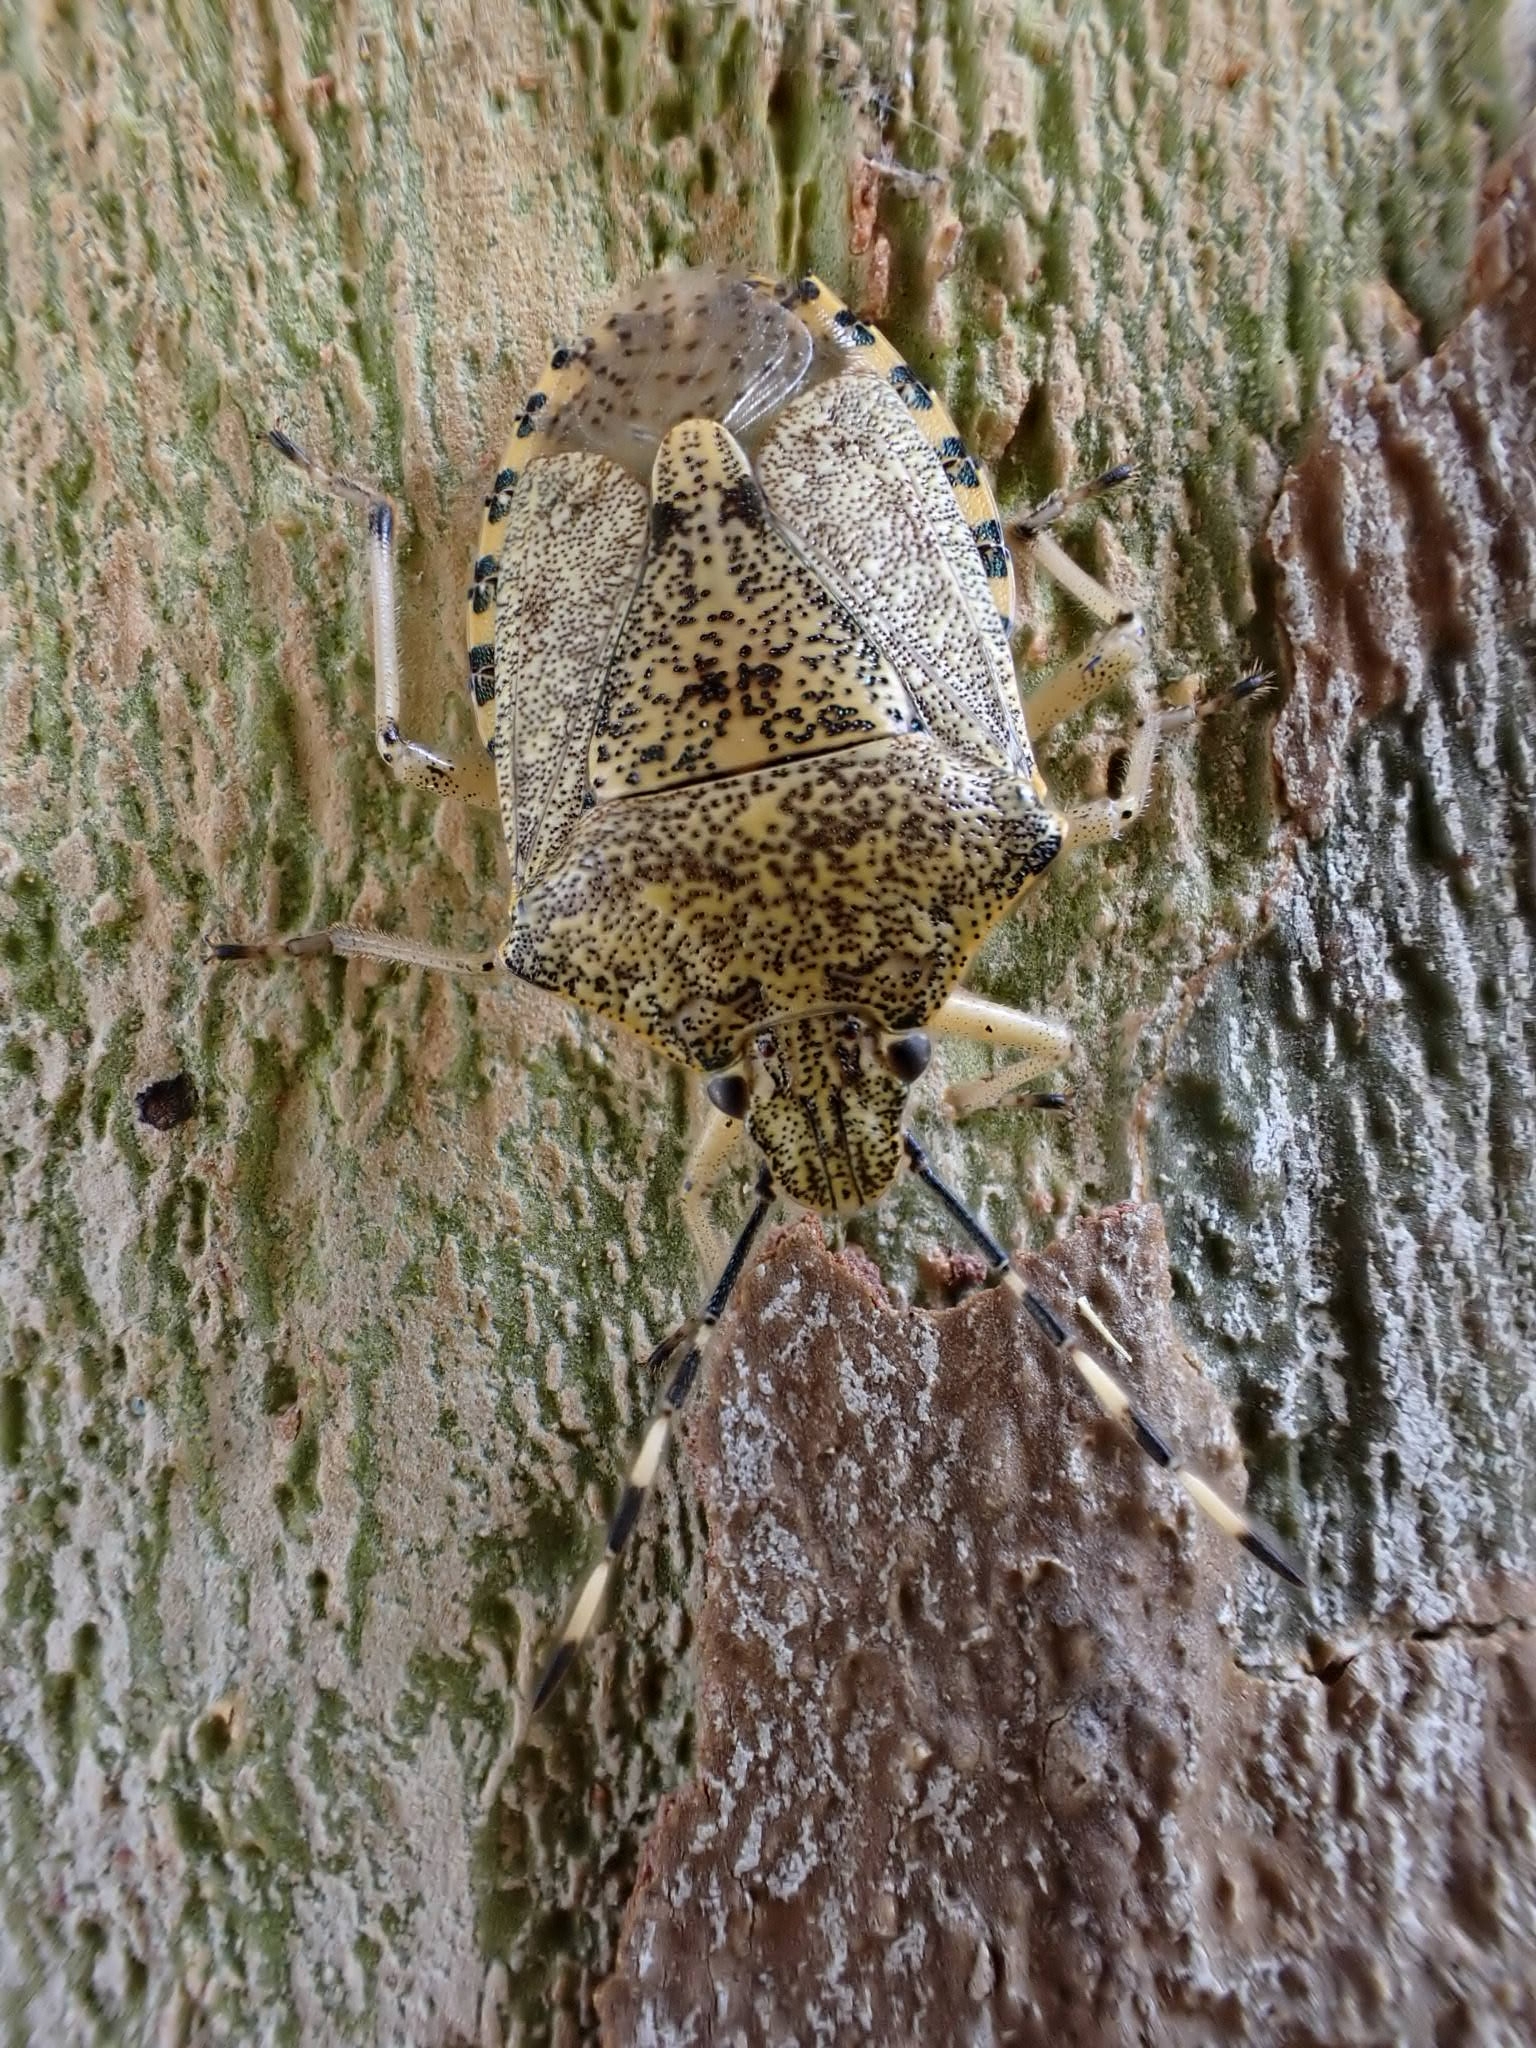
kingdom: Animalia
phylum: Arthropoda
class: Insecta
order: Hemiptera
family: Pentatomidae
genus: Rhaphigaster
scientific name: Rhaphigaster nebulosa
